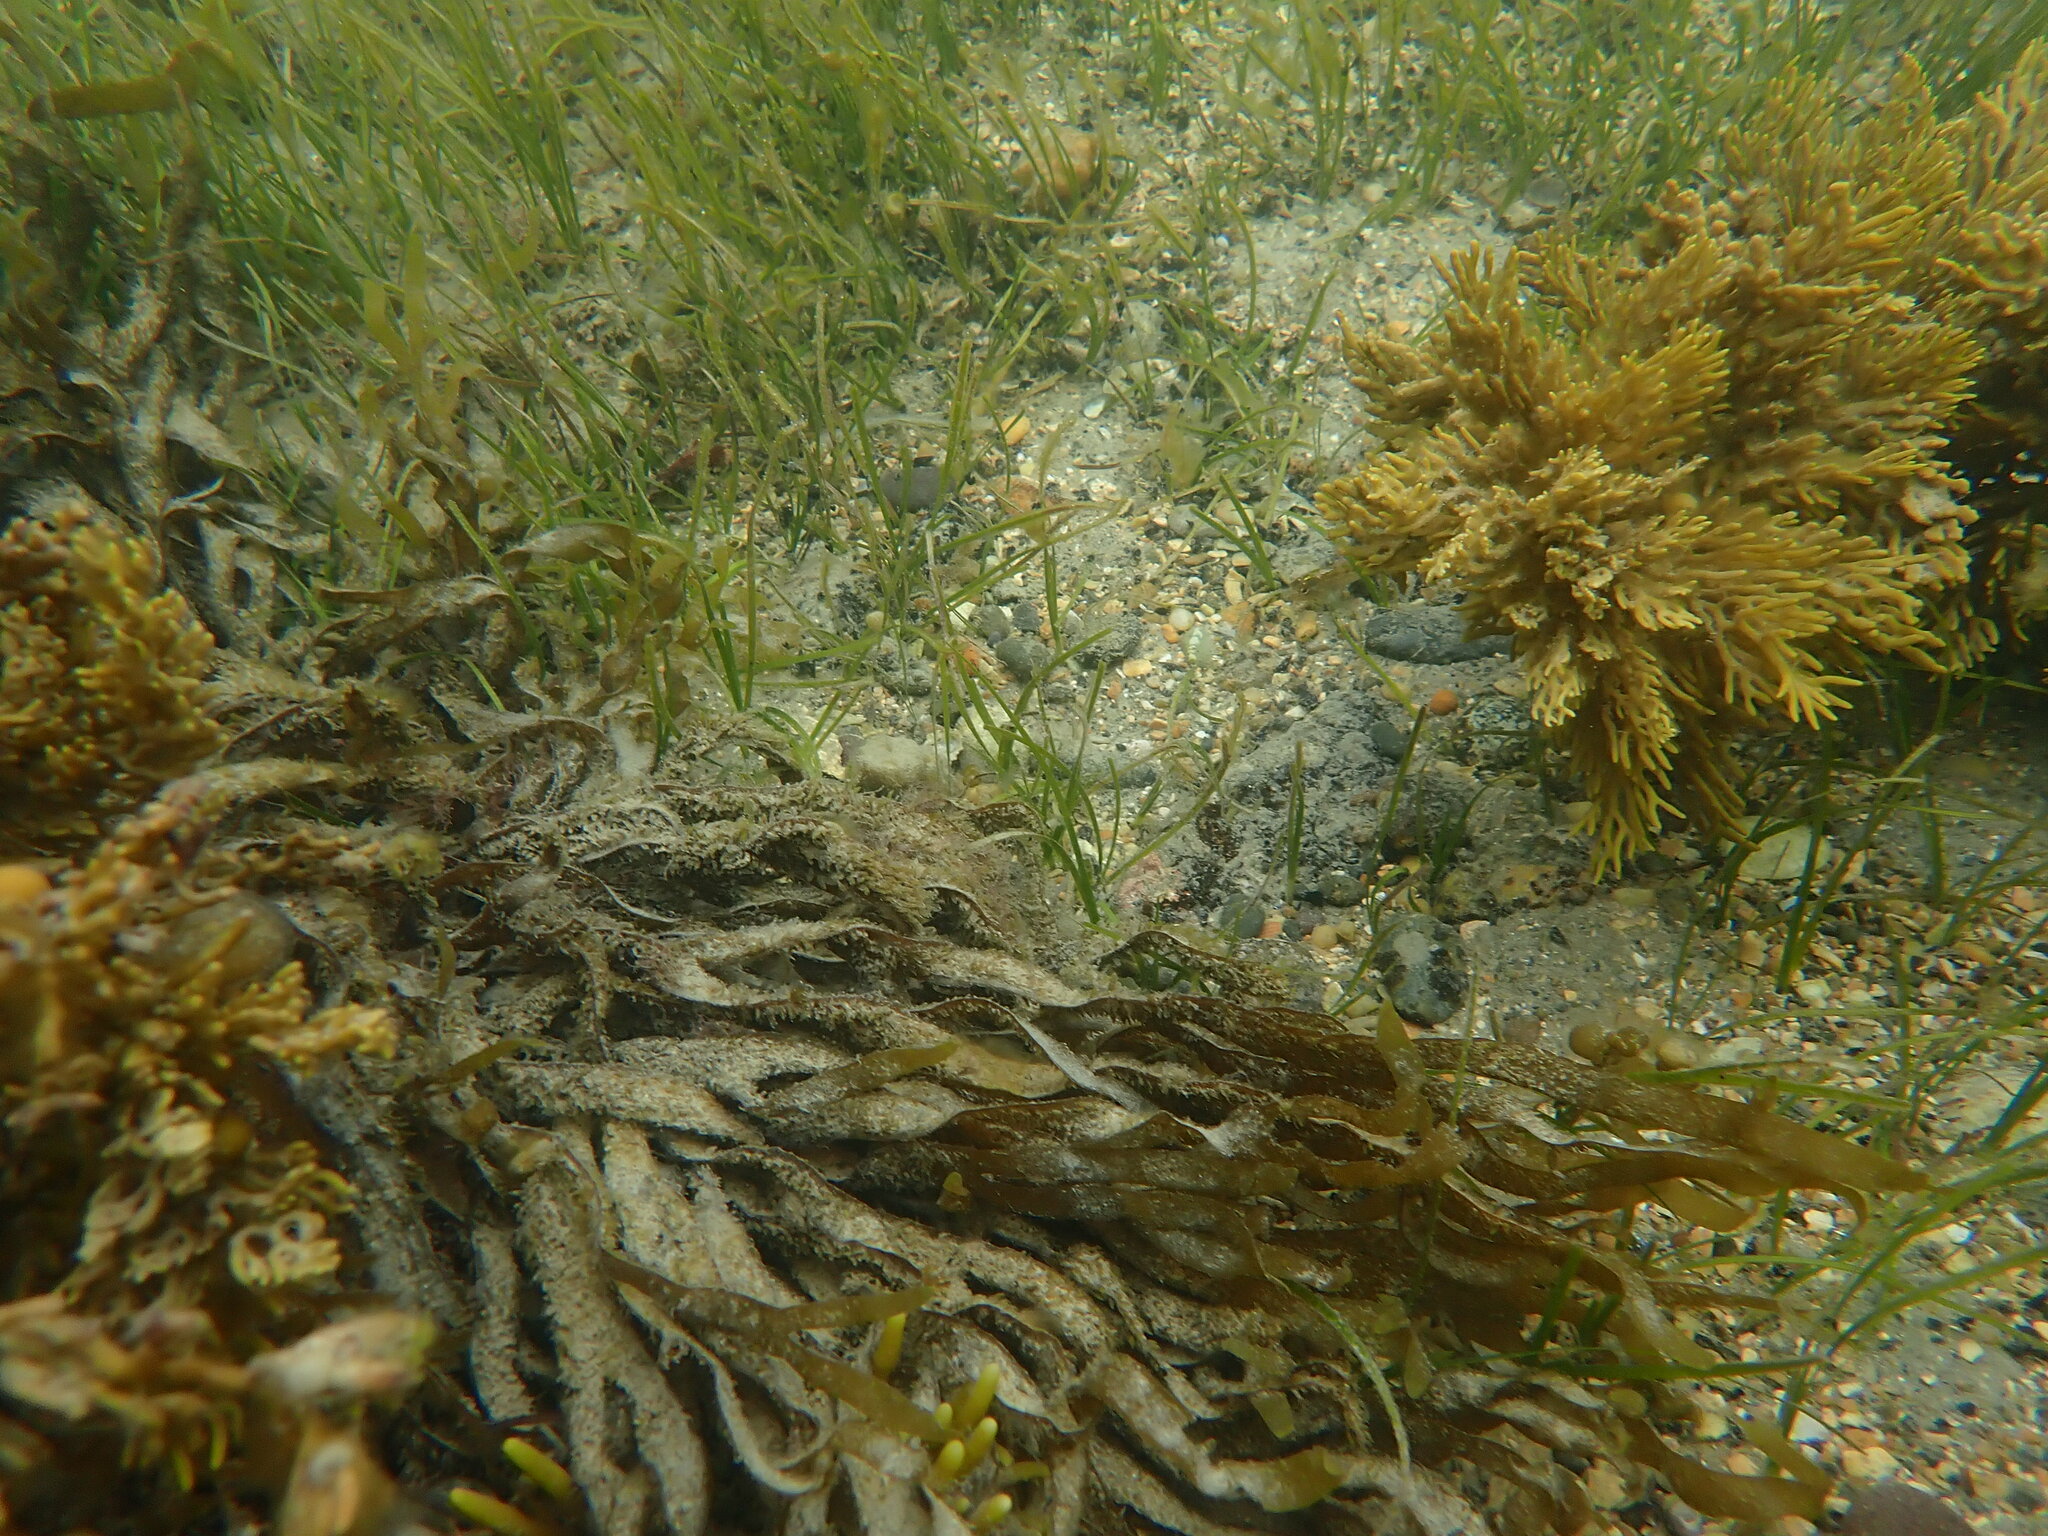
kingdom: Chromista
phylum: Ochrophyta
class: Phaeophyceae
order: Dictyotales
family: Dictyotaceae
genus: Dictyota
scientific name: Dictyota kunthii
